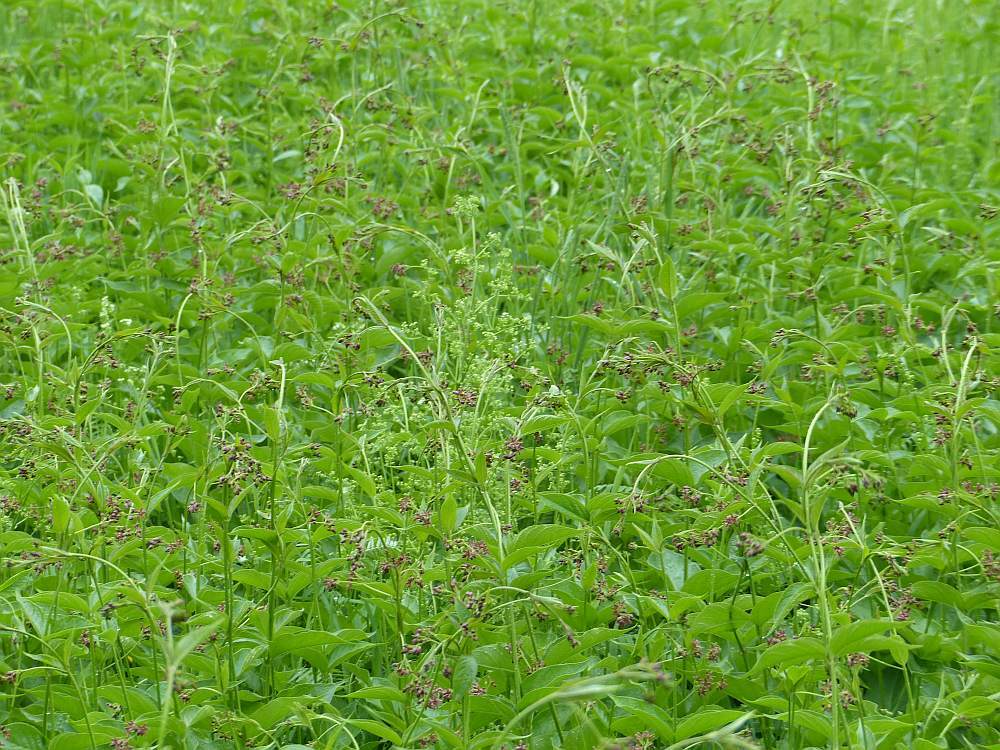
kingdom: Plantae
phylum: Tracheophyta
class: Magnoliopsida
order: Gentianales
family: Apocynaceae
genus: Vincetoxicum
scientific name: Vincetoxicum rossicum
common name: Dog-strangling vine
